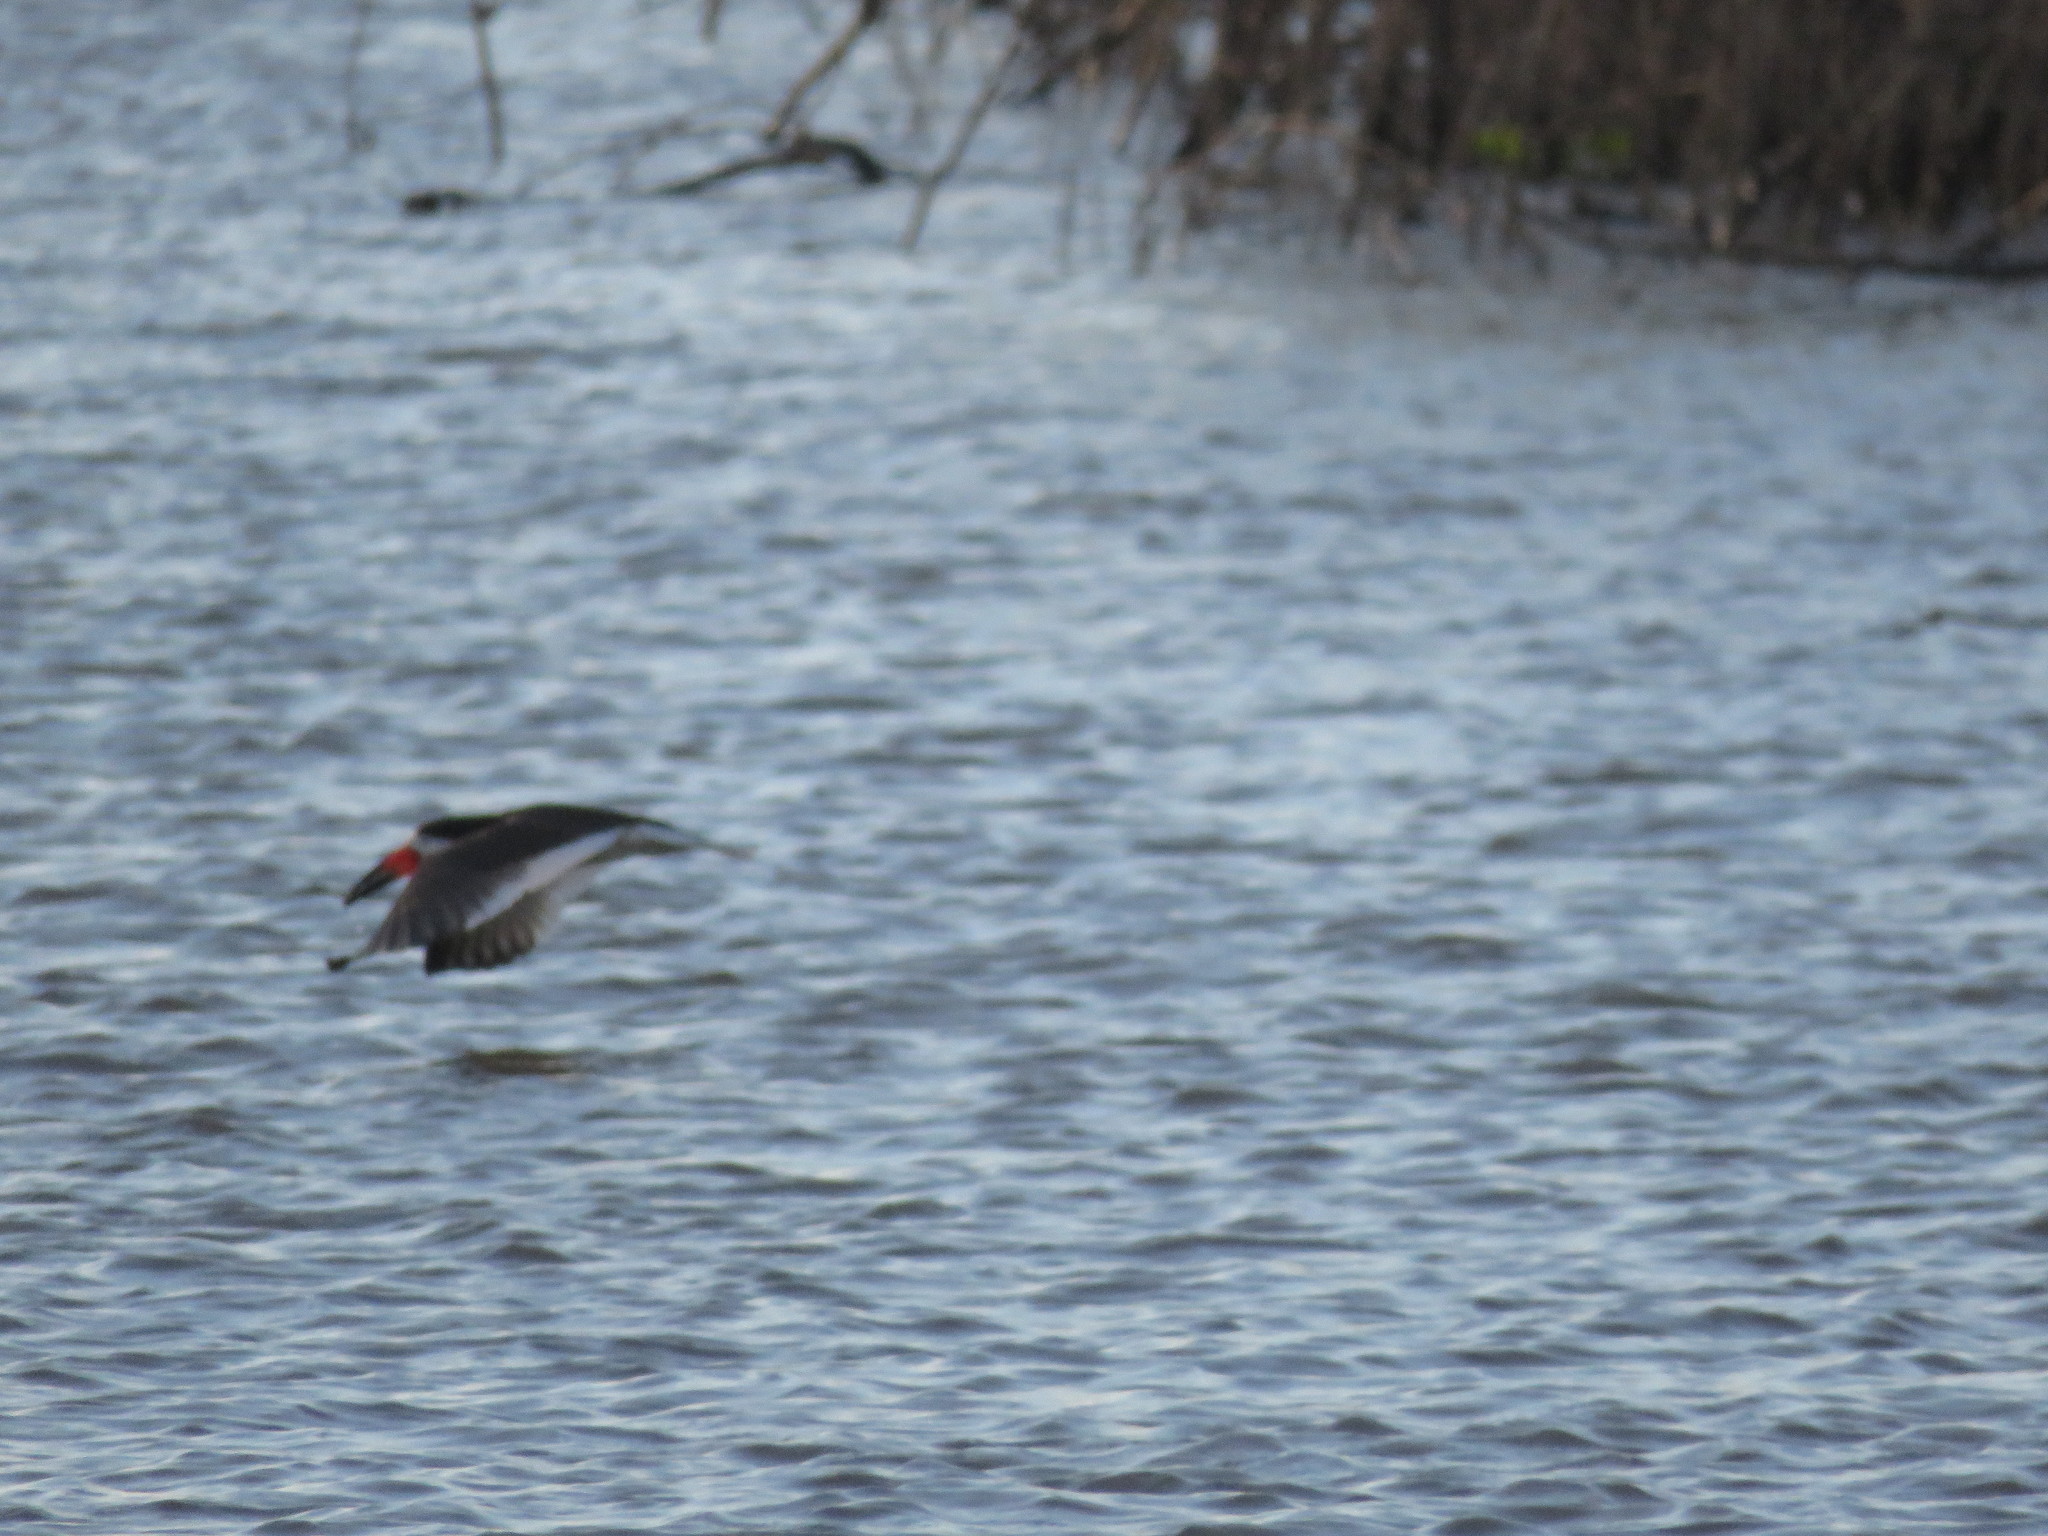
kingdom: Animalia
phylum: Chordata
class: Aves
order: Charadriiformes
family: Laridae
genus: Rynchops
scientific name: Rynchops niger
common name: Black skimmer
